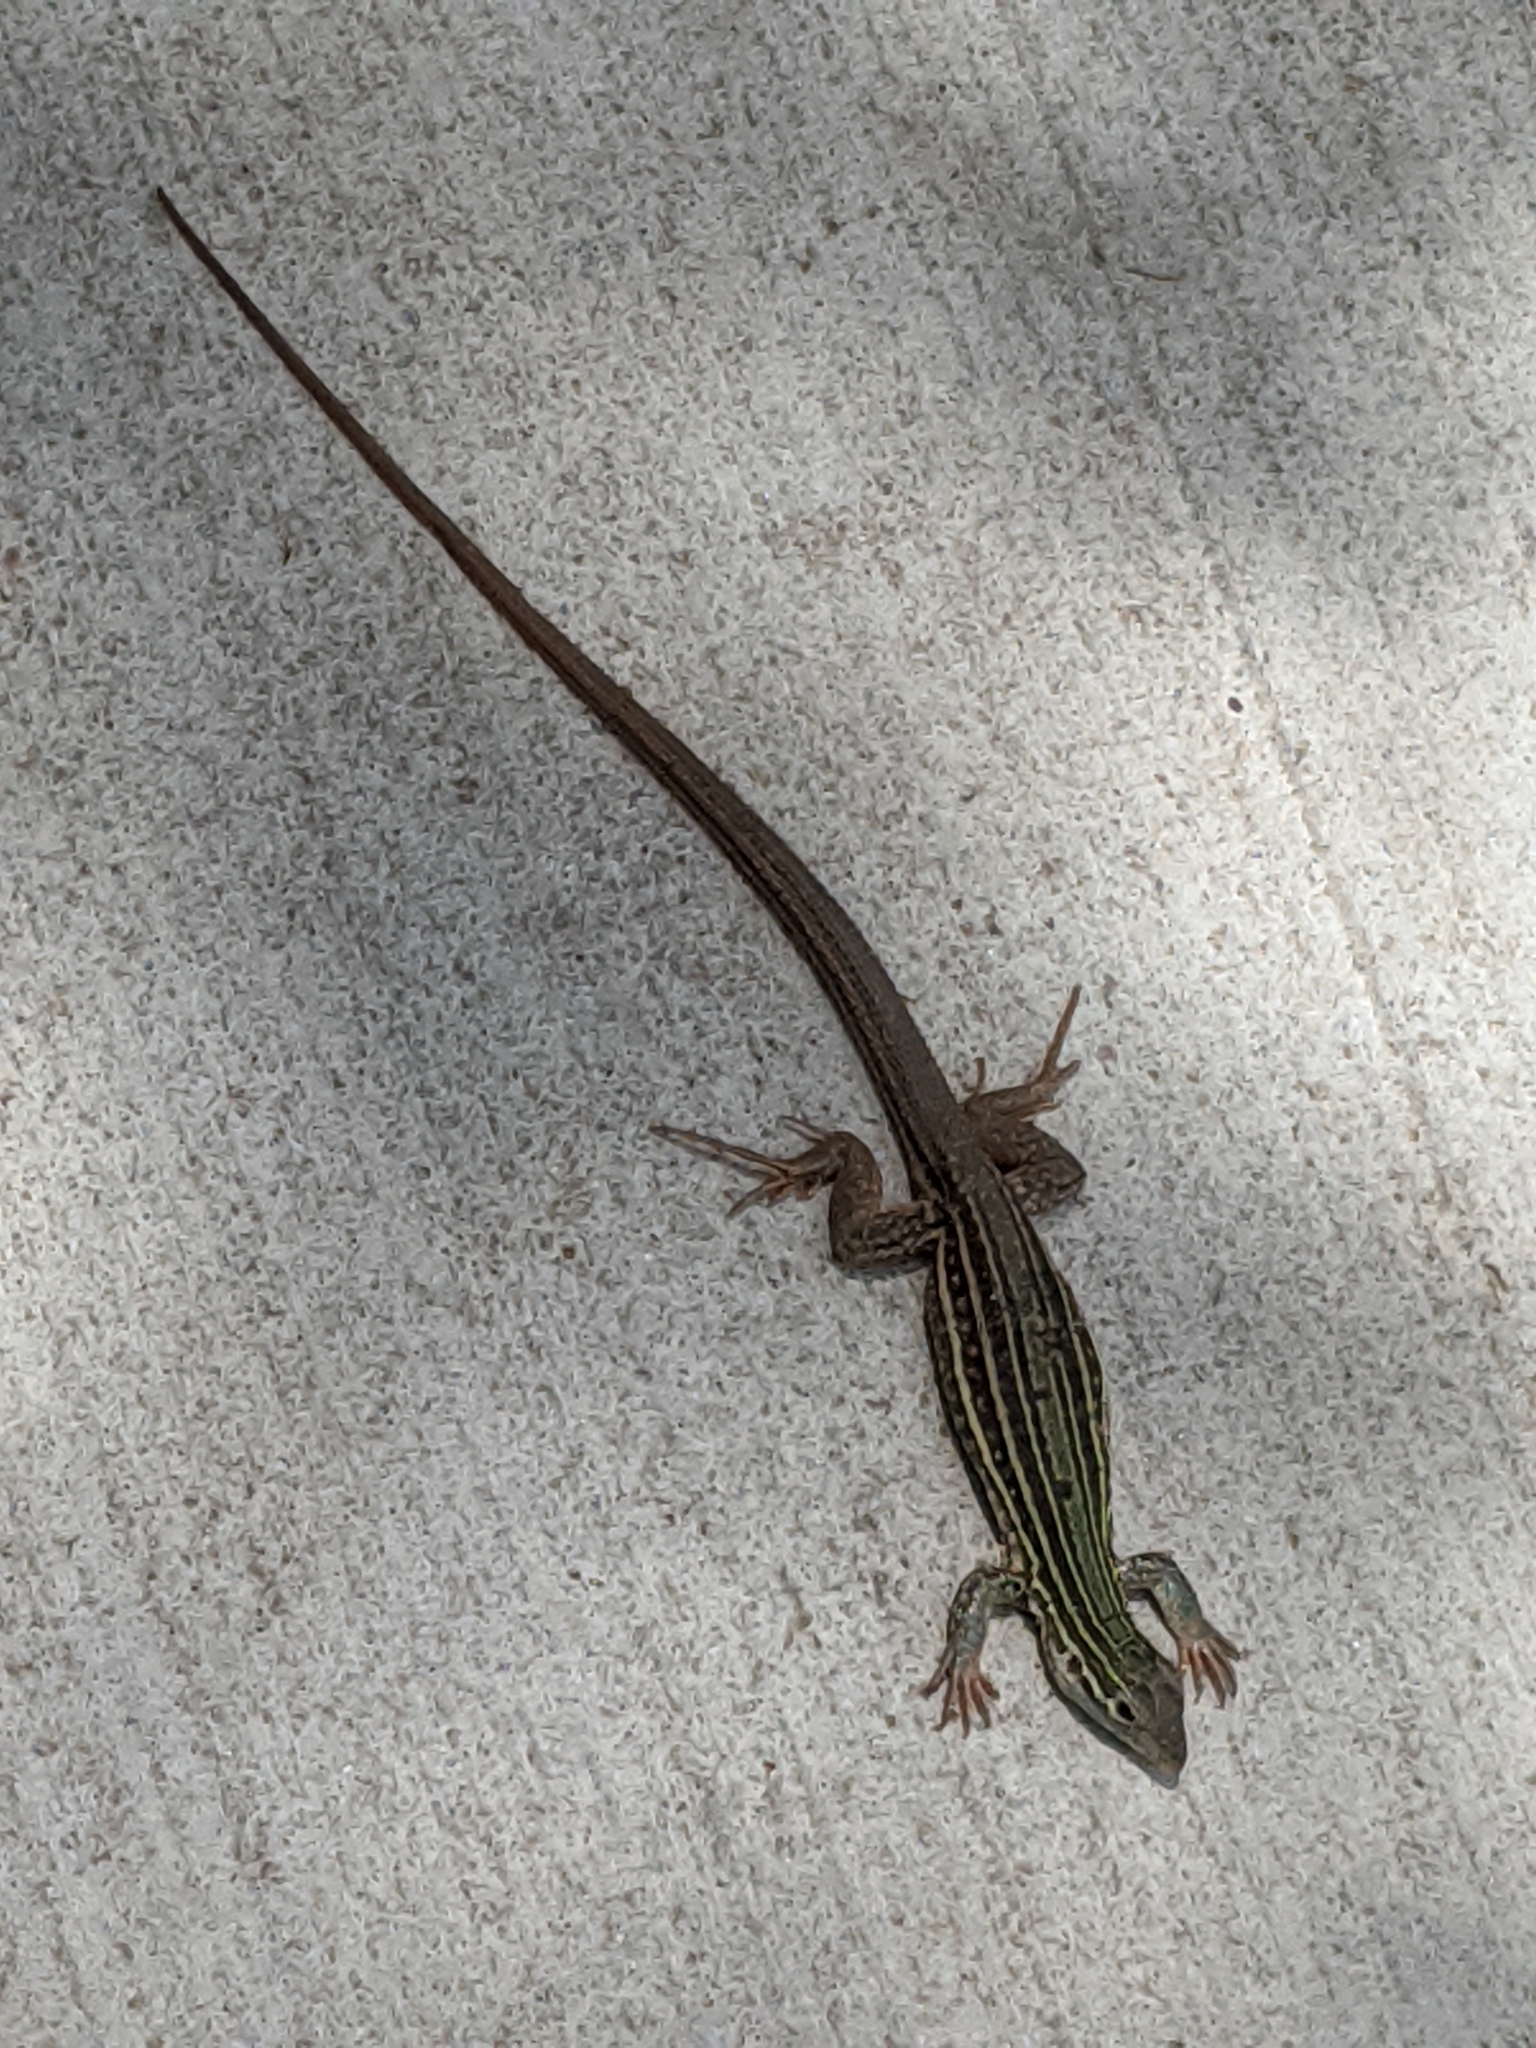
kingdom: Animalia
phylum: Chordata
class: Squamata
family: Teiidae
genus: Aspidoscelis
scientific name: Aspidoscelis gularis
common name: Eastern spotted whiptail
